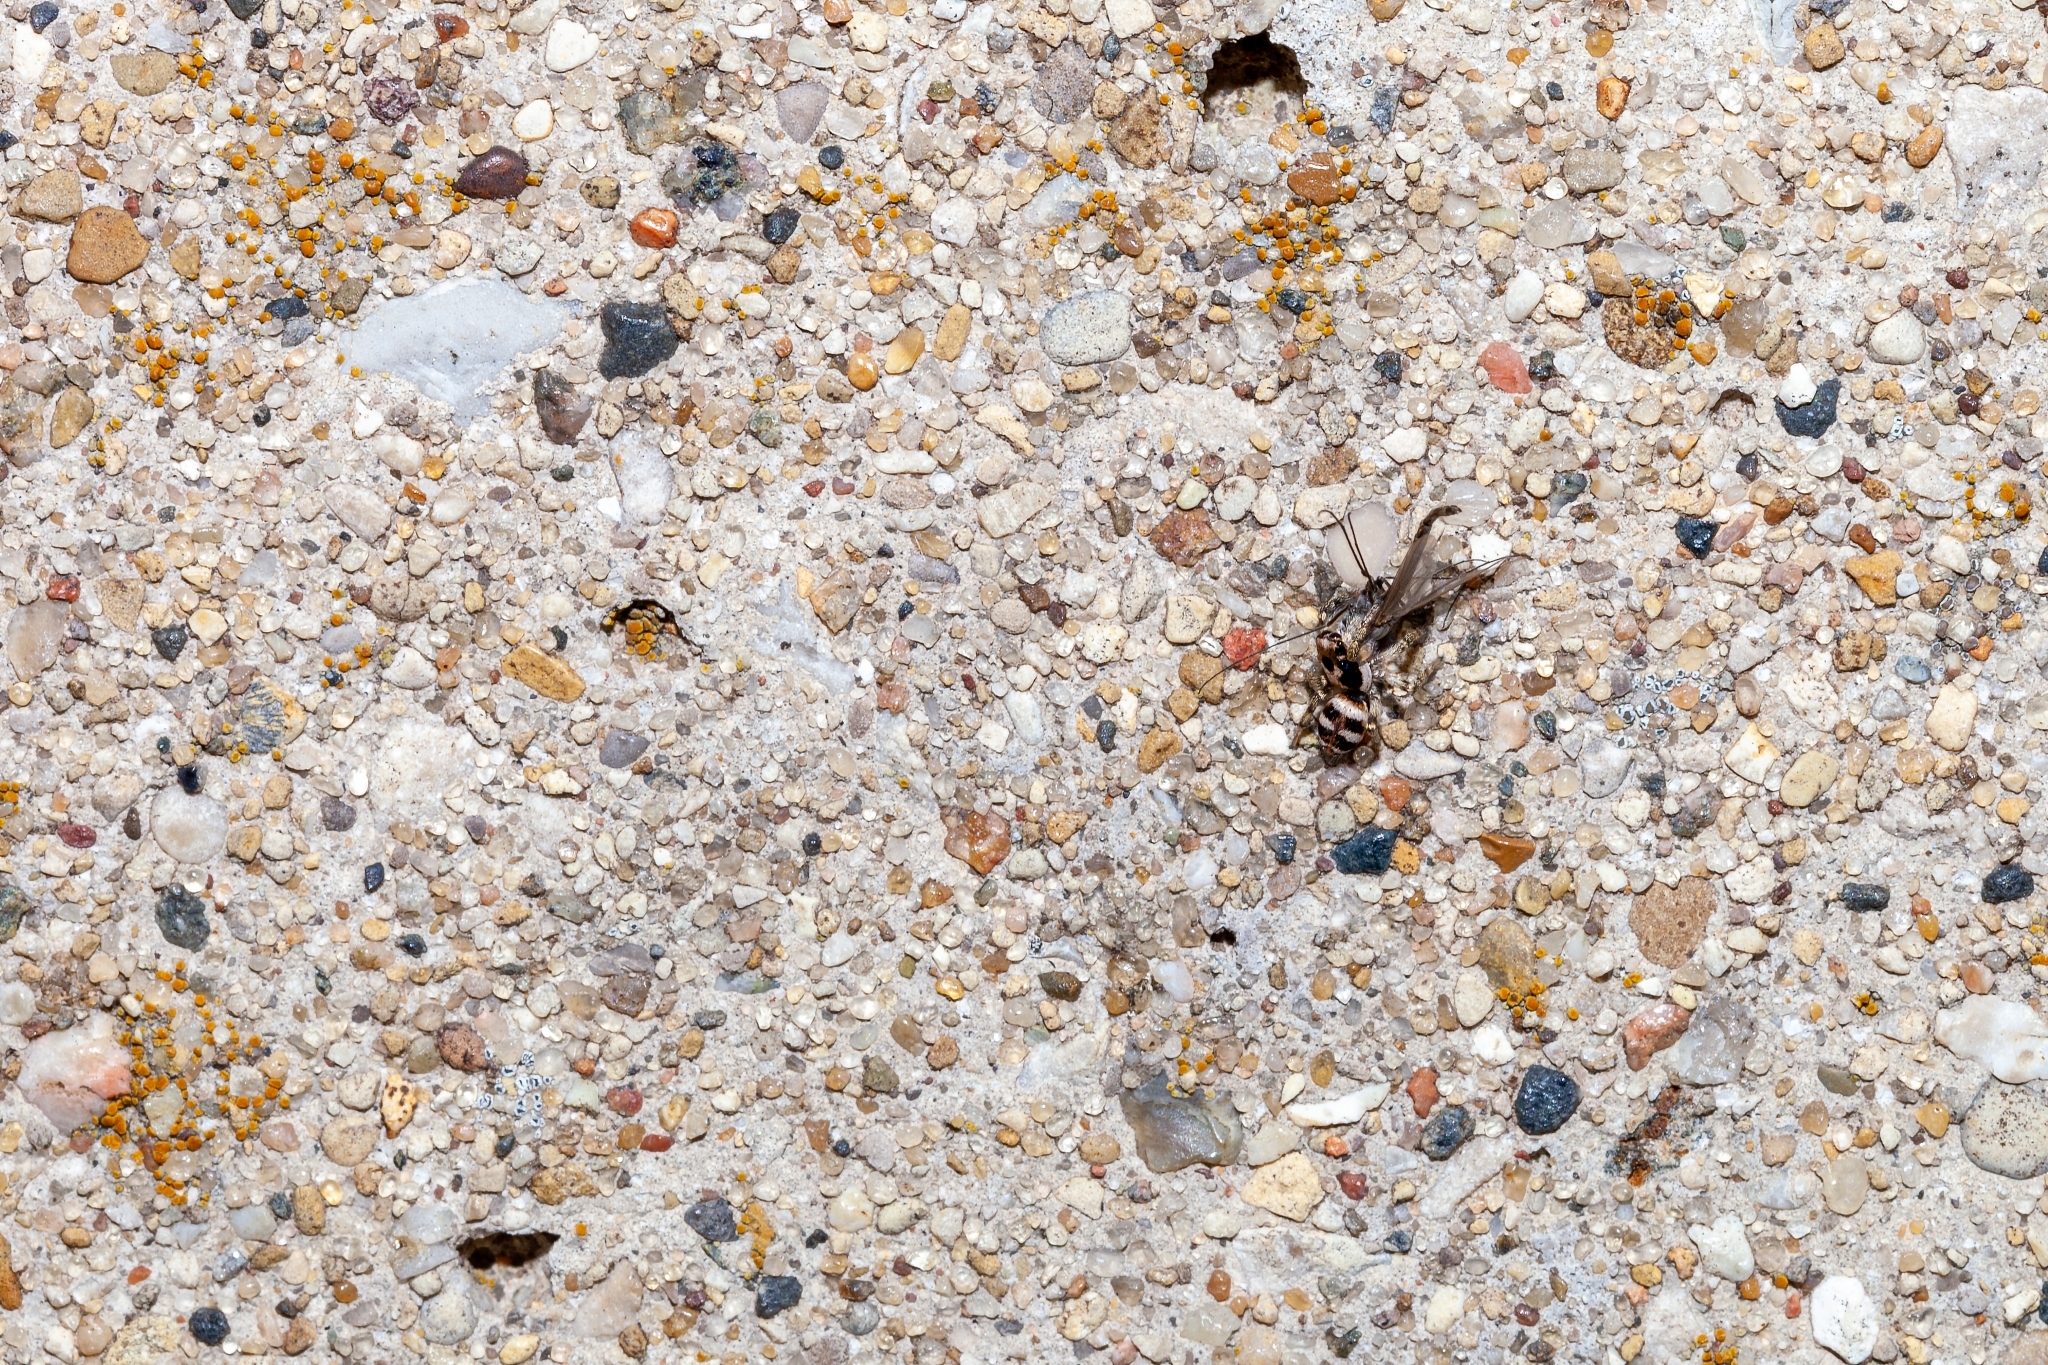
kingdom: Animalia
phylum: Arthropoda
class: Arachnida
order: Araneae
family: Salticidae
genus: Salticus
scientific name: Salticus scenicus
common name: Zebra jumper
